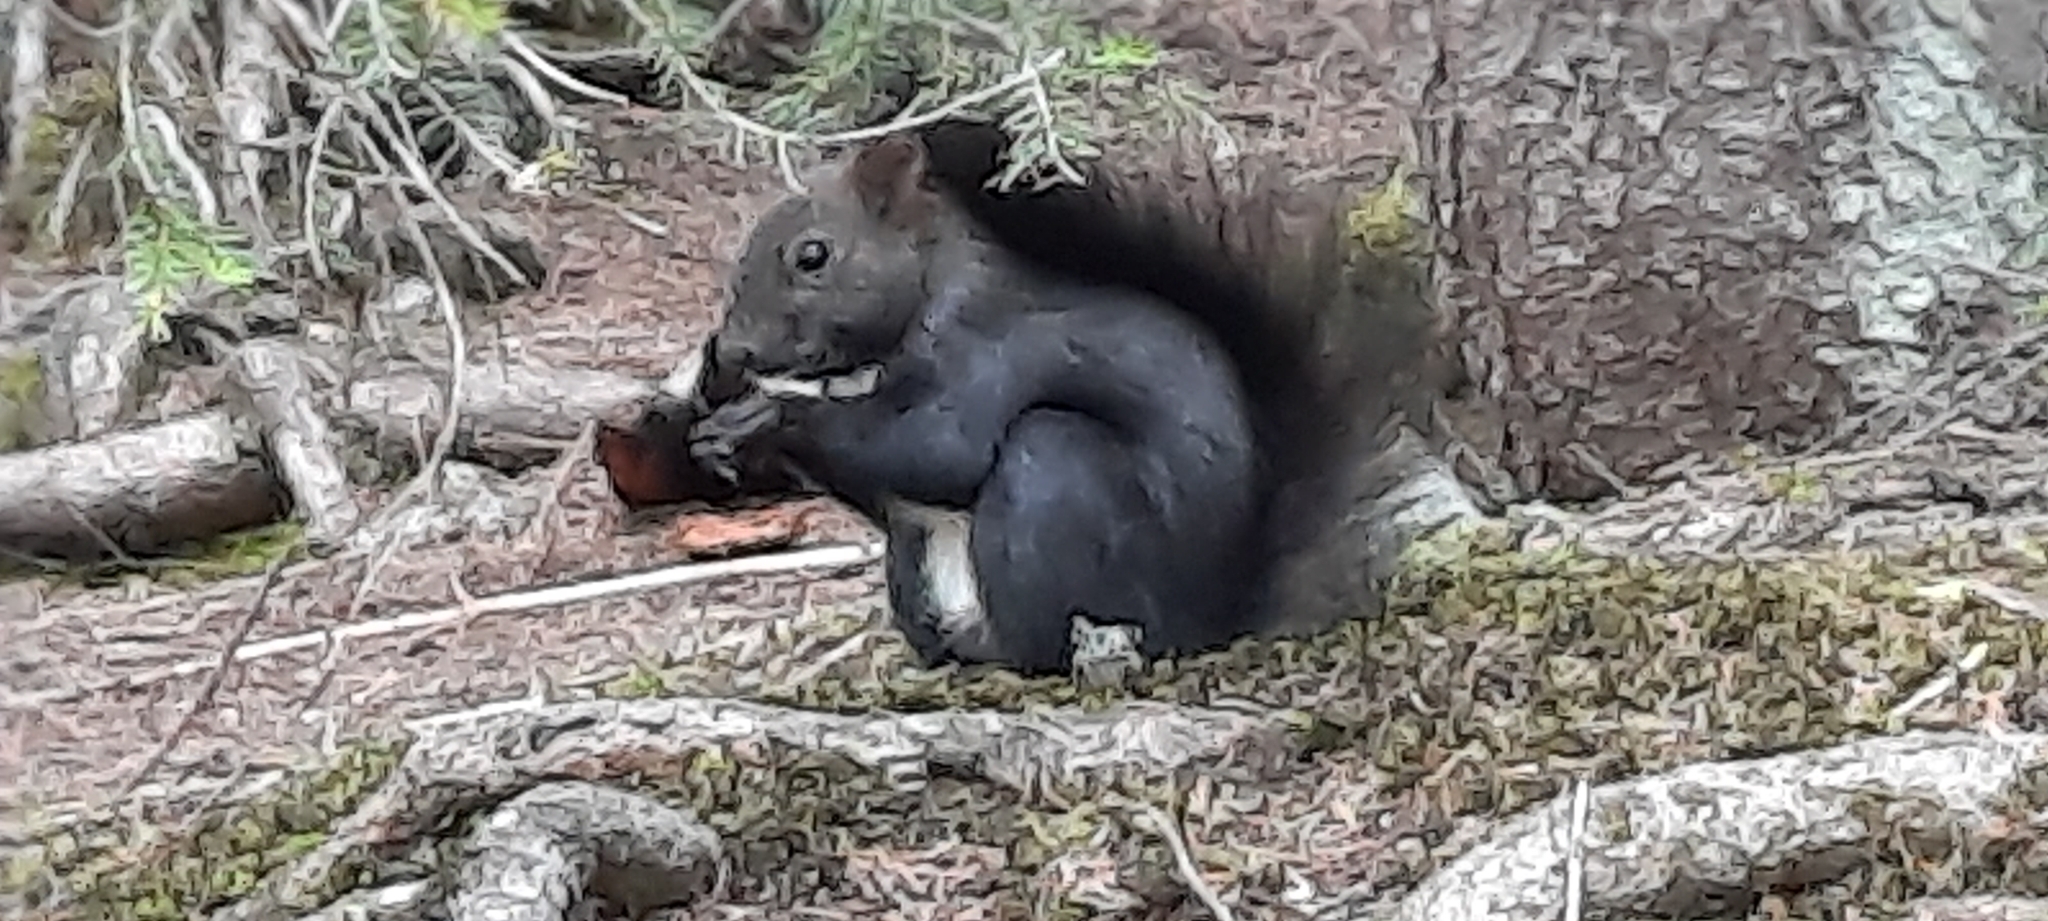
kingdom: Animalia
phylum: Chordata
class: Mammalia
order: Rodentia
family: Sciuridae
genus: Sciurus
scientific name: Sciurus vulgaris
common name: Eurasian red squirrel
